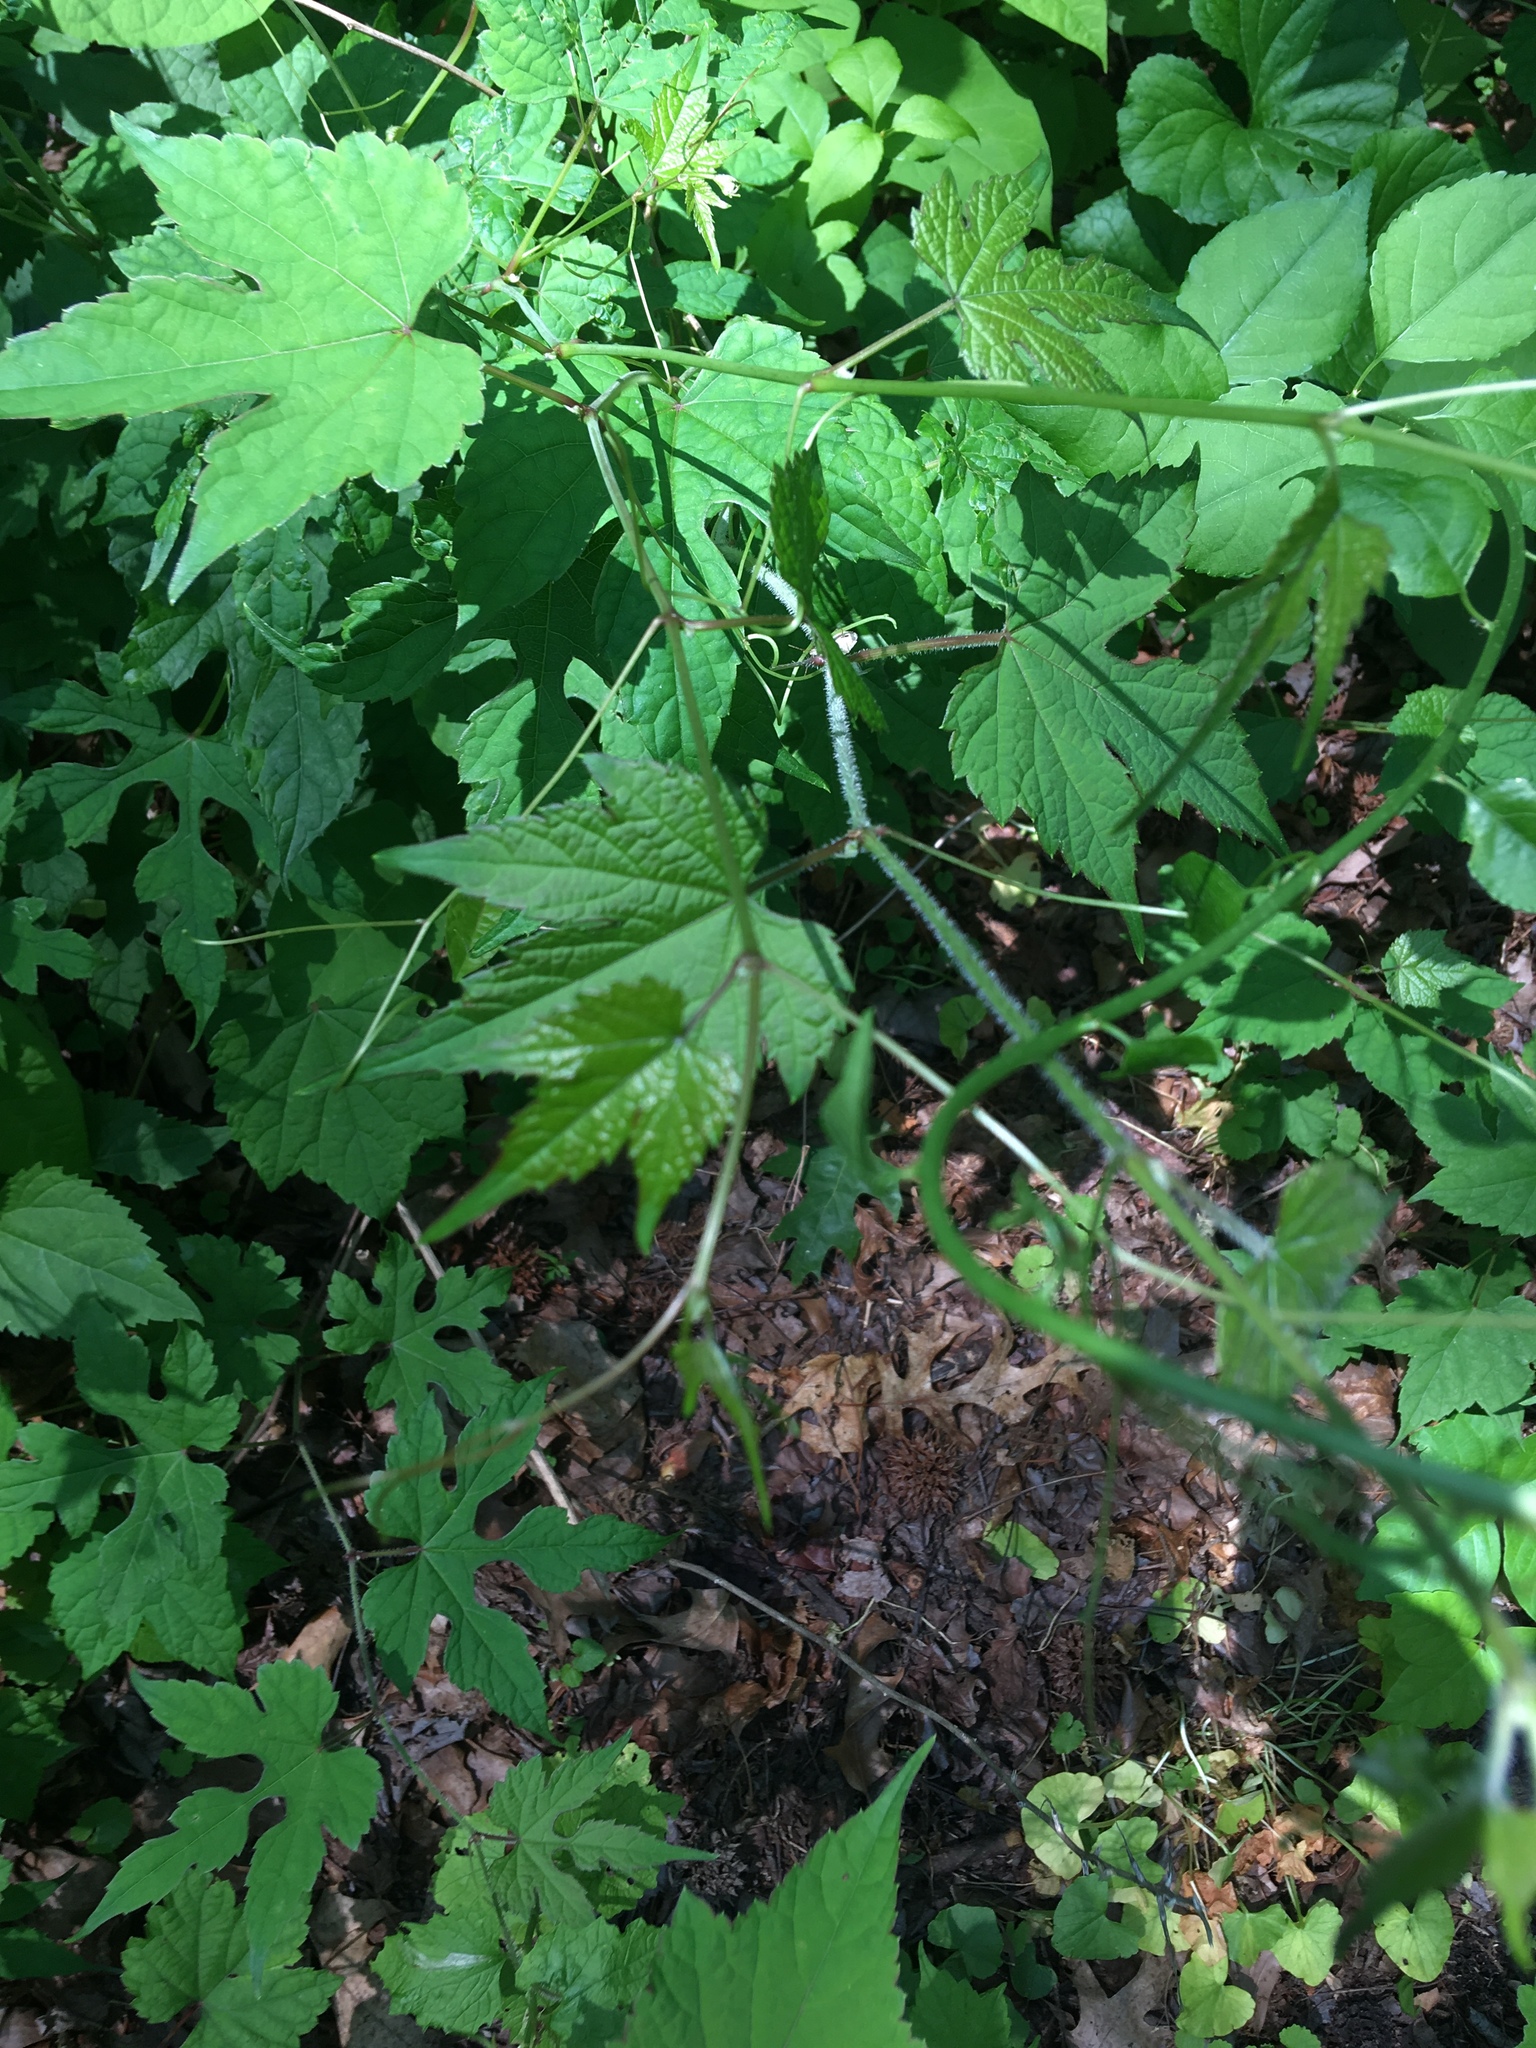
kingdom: Plantae
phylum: Tracheophyta
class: Magnoliopsida
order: Vitales
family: Vitaceae
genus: Ampelopsis
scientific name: Ampelopsis glandulosa
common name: Amur peppervine
